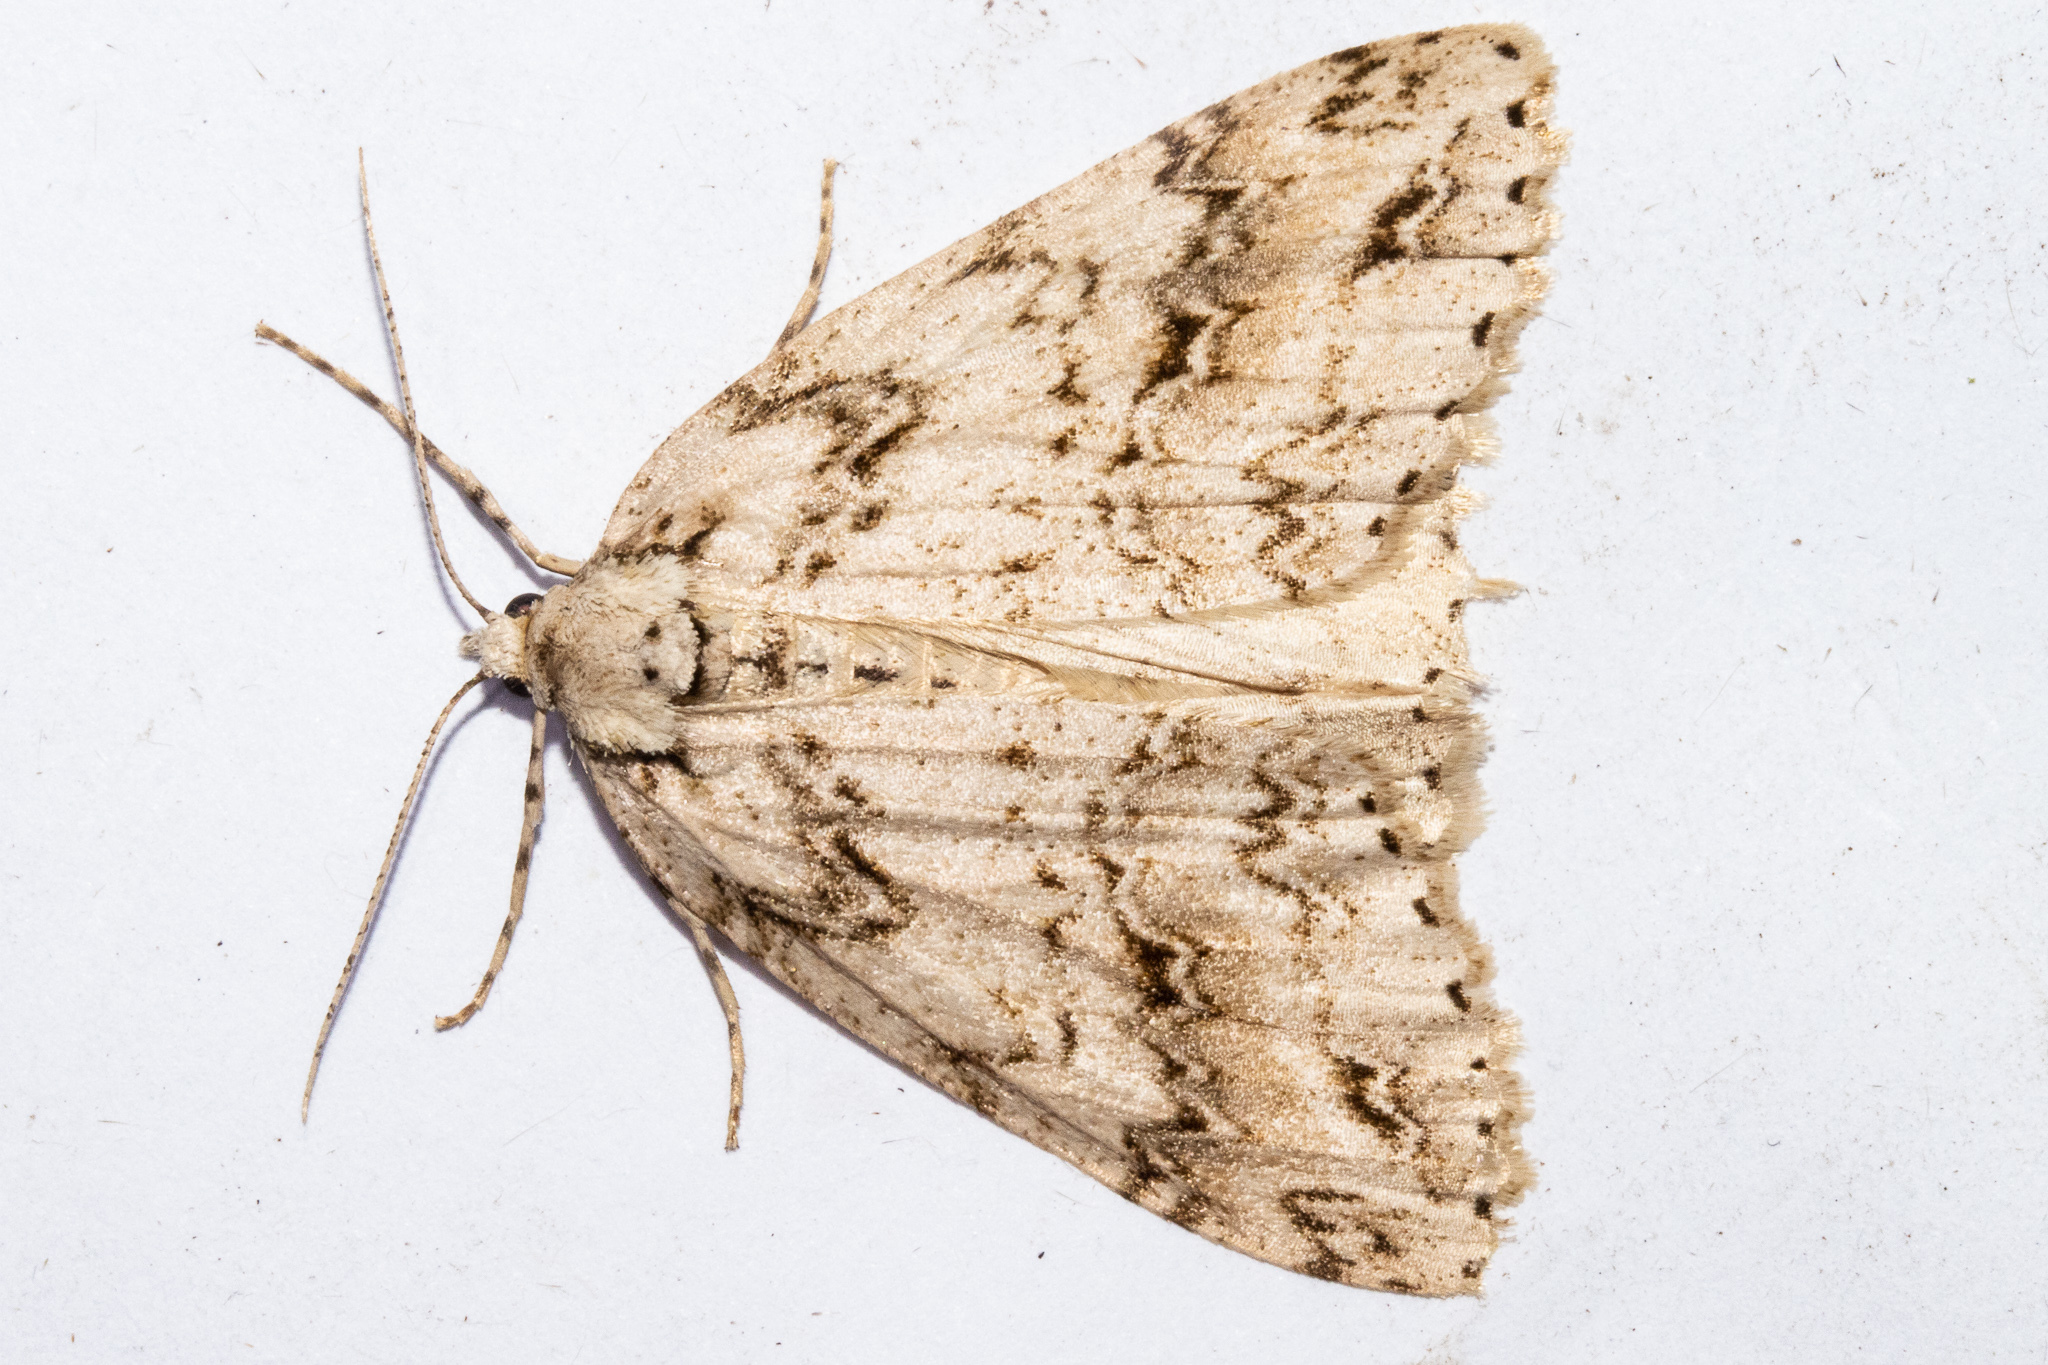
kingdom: Animalia
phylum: Arthropoda
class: Insecta
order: Lepidoptera
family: Geometridae
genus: Pseudocoremia
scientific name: Pseudocoremia rudisata
